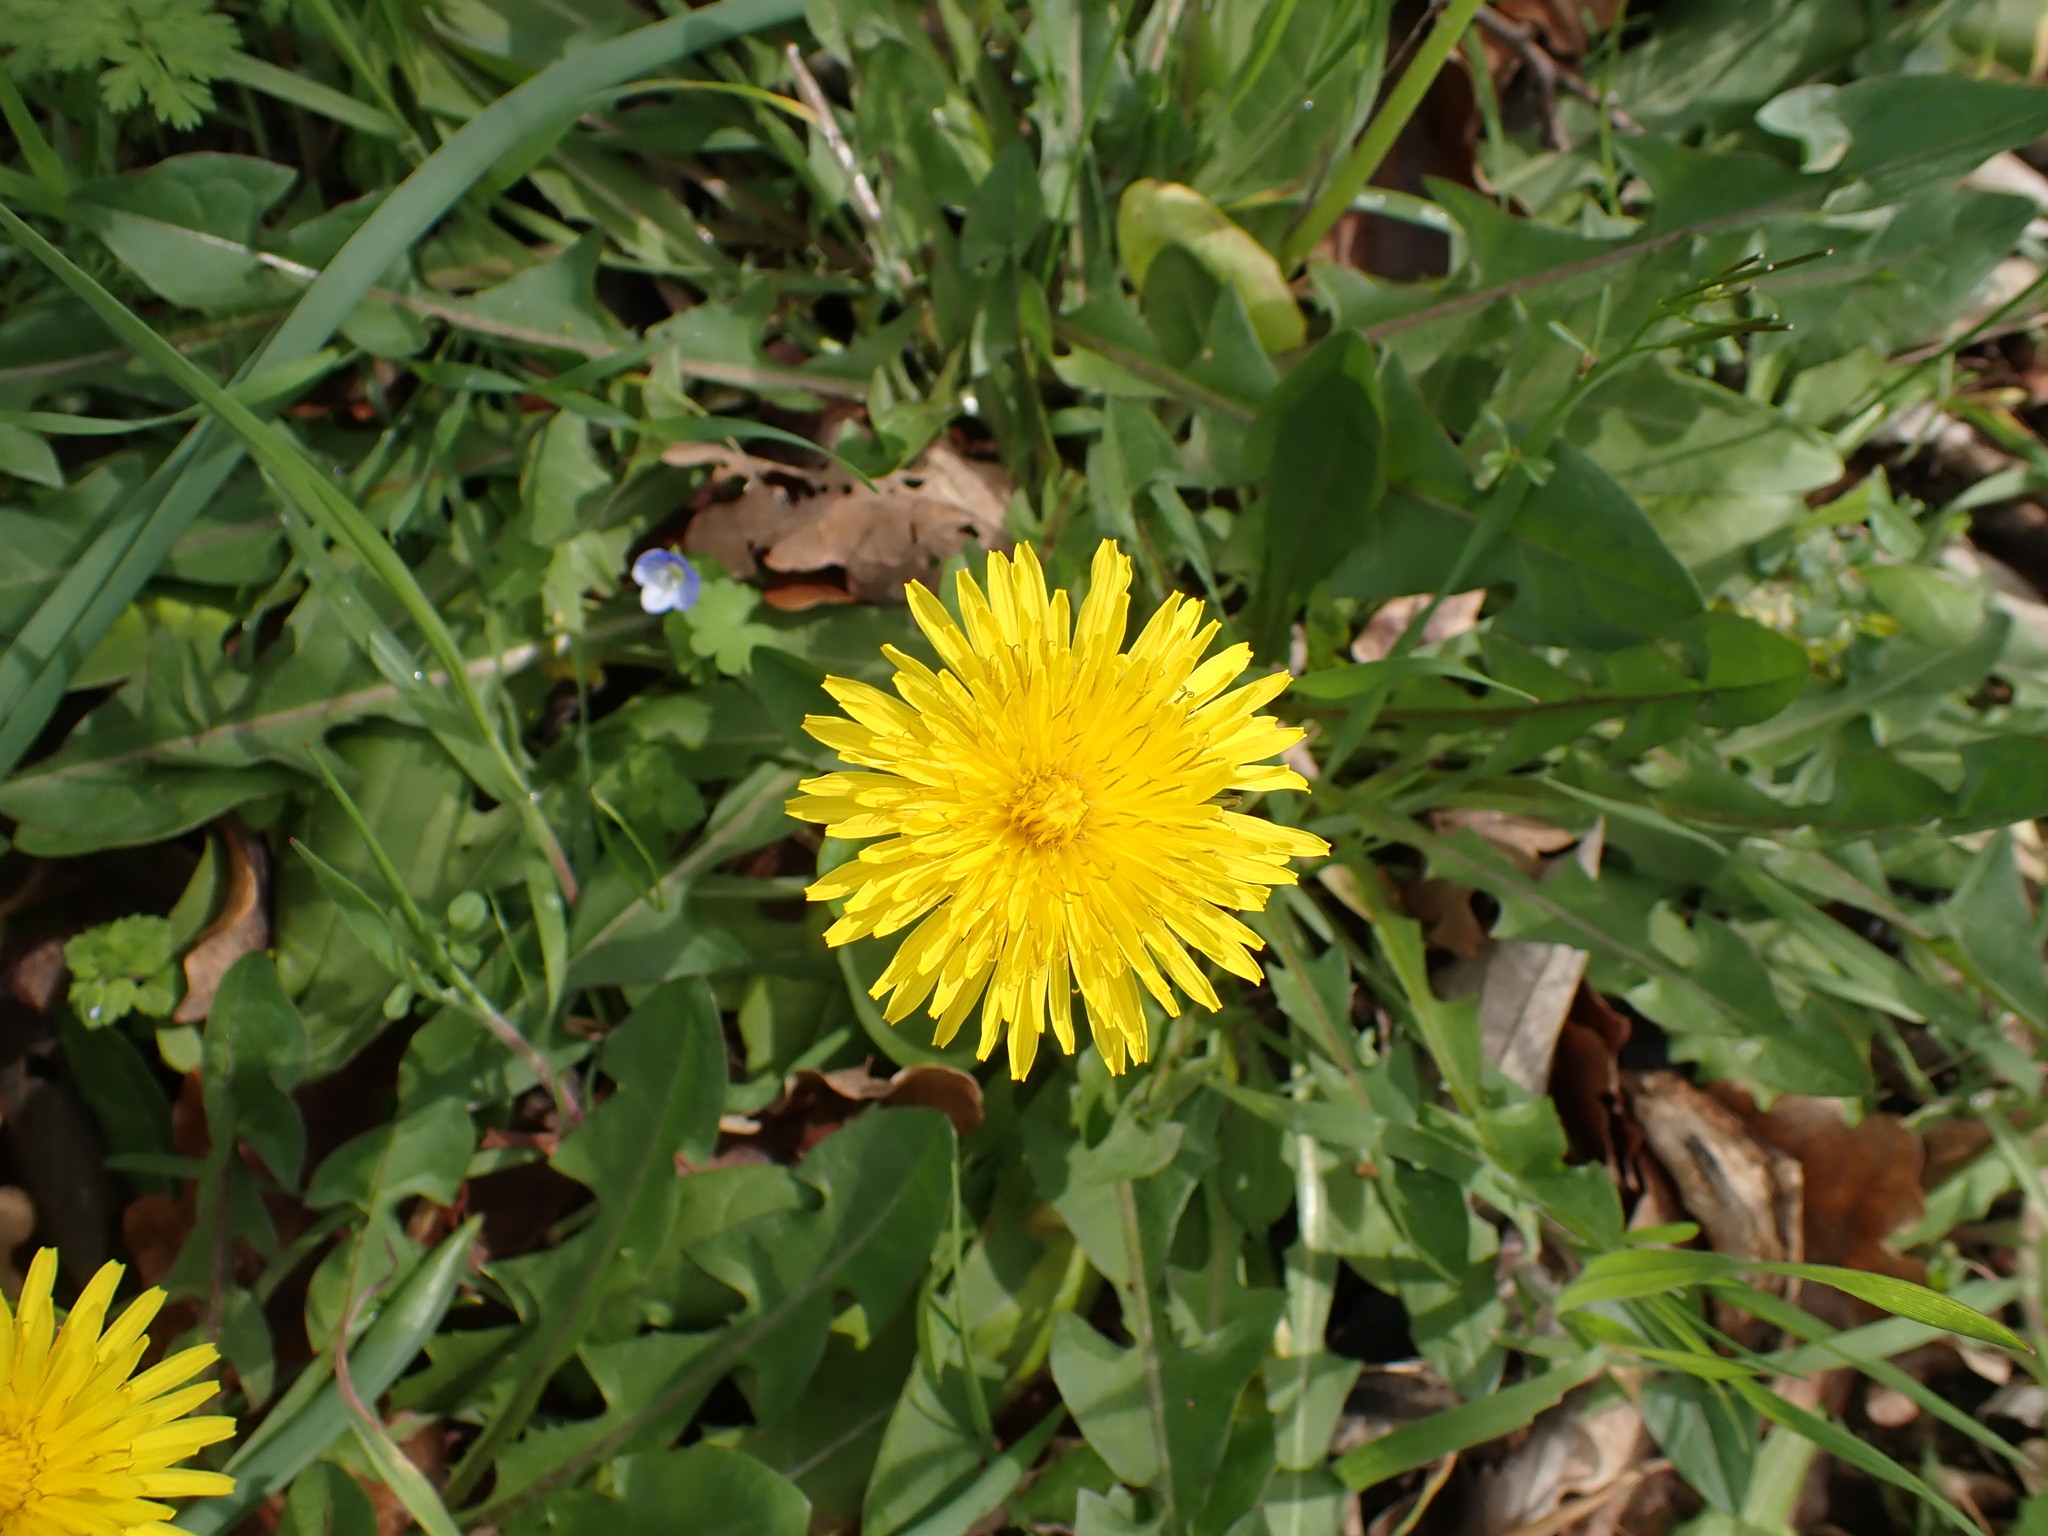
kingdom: Plantae
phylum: Tracheophyta
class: Magnoliopsida
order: Asterales
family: Asteraceae
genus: Taraxacum
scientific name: Taraxacum officinale
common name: Common dandelion
